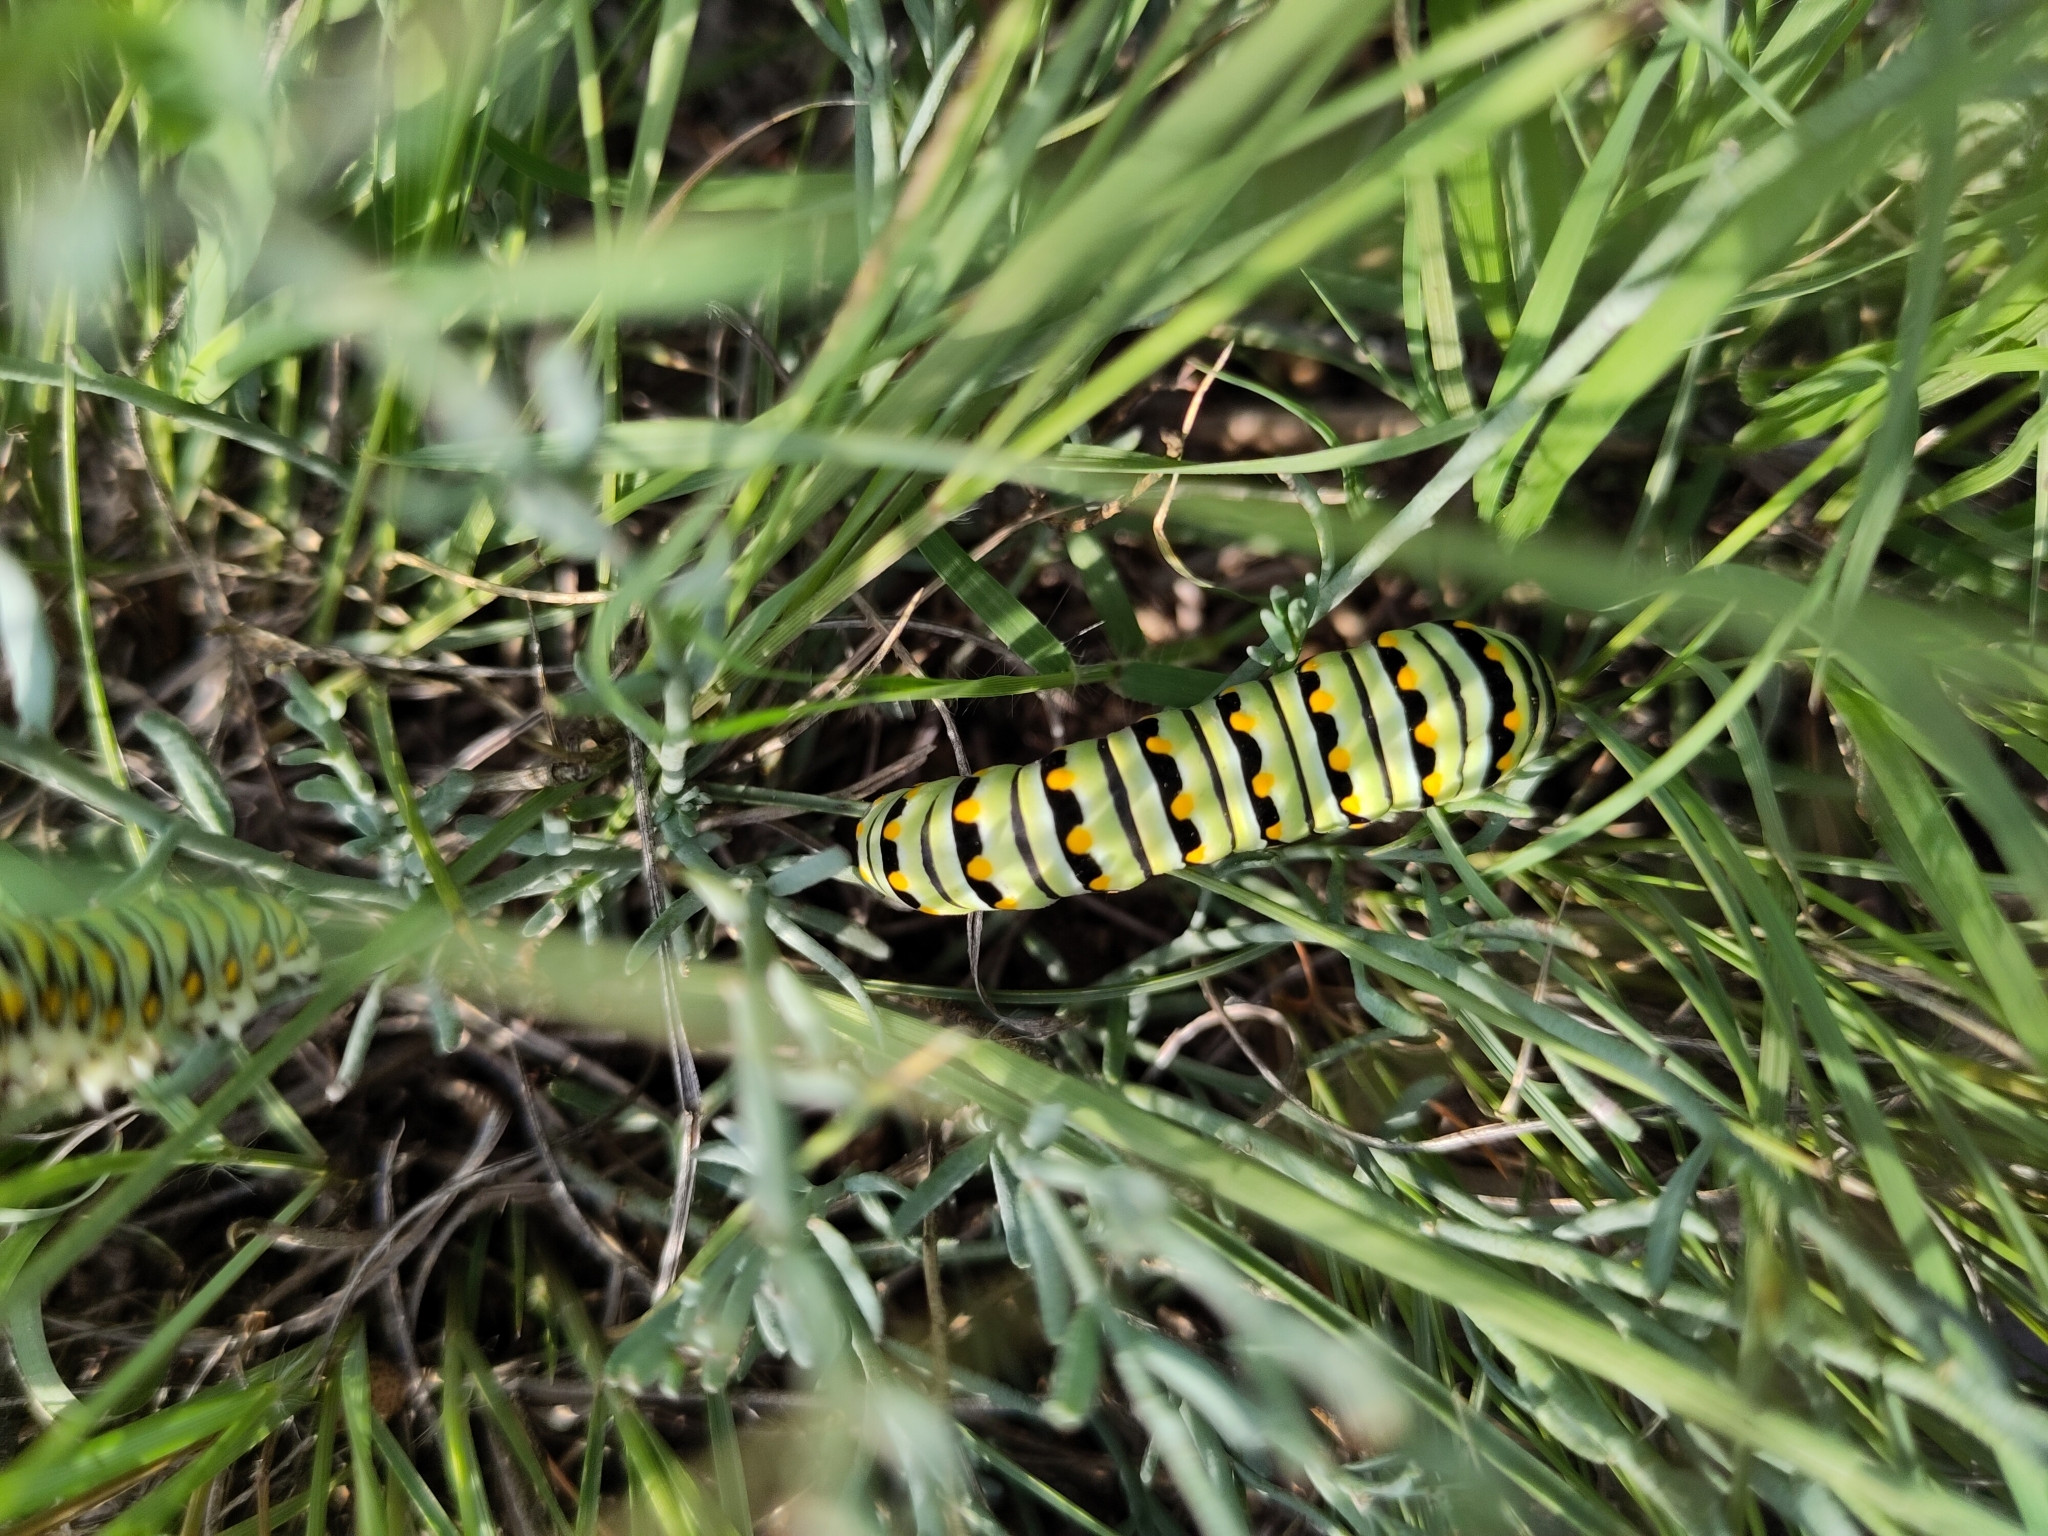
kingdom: Animalia
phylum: Arthropoda
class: Insecta
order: Lepidoptera
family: Papilionidae
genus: Papilio
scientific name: Papilio polyxenes
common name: Black swallowtail
